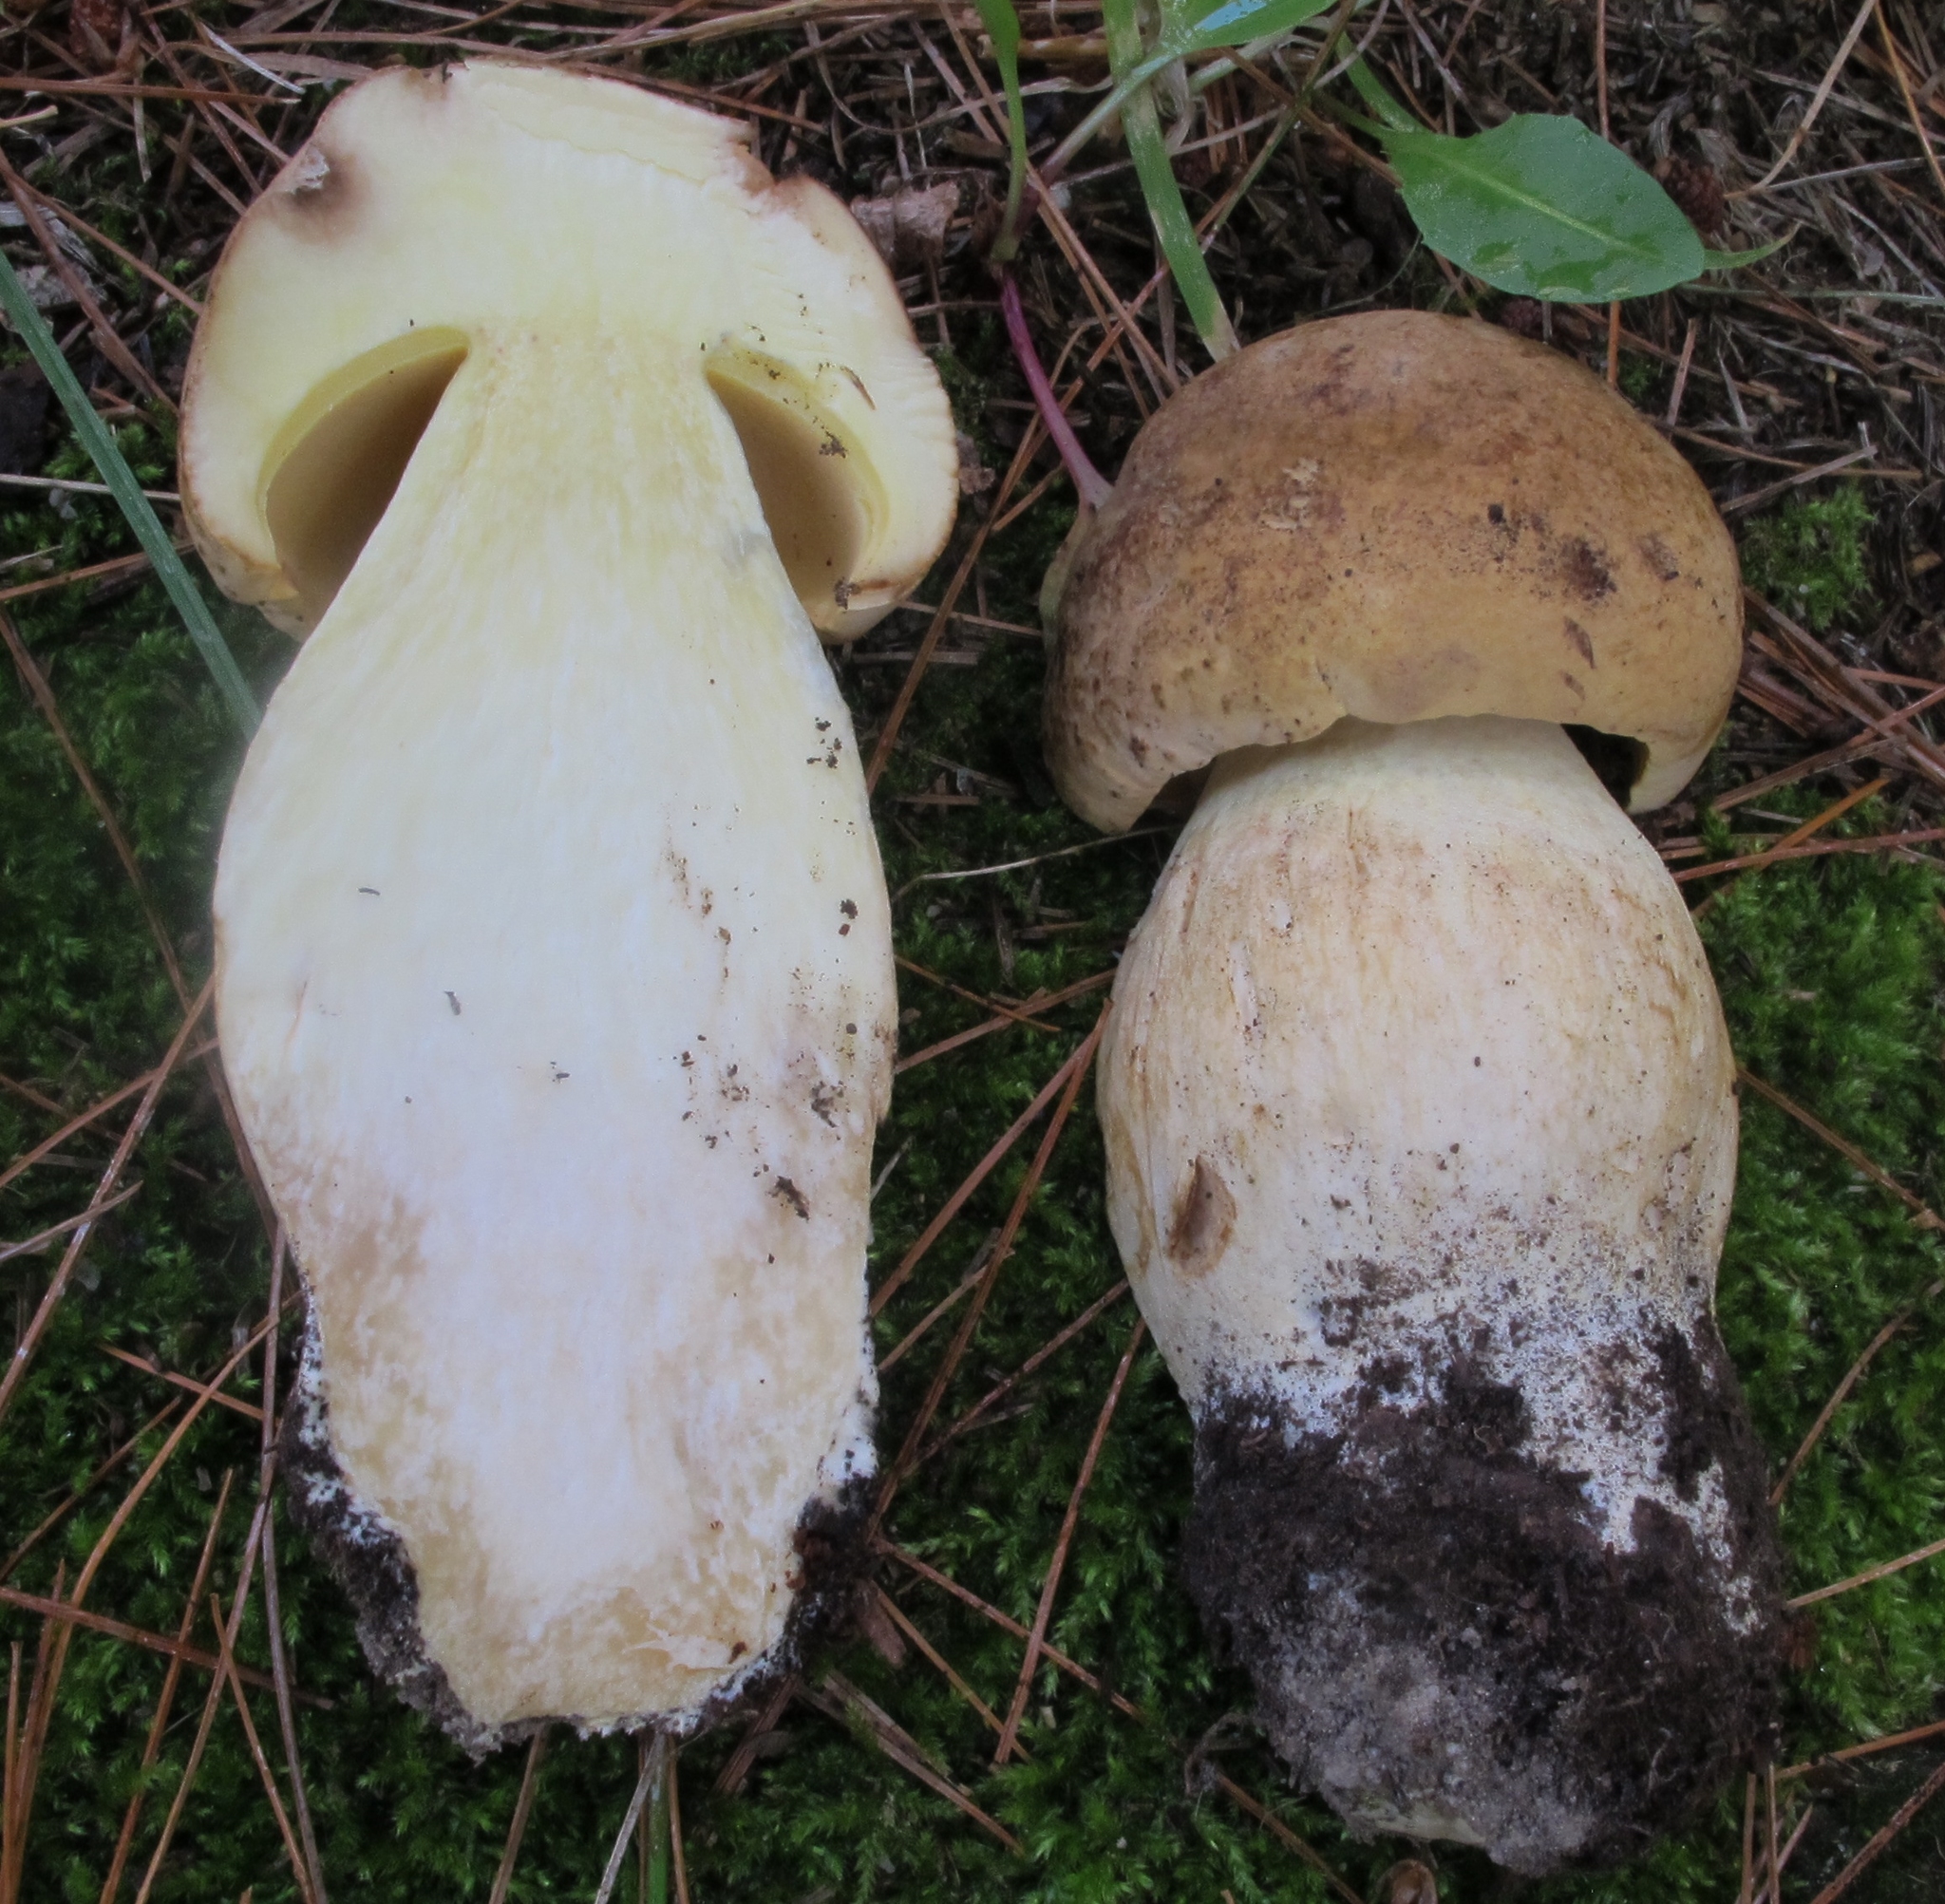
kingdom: Fungi
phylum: Basidiomycota
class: Agaricomycetes
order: Boletales
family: Boletaceae
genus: Boletus
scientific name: Boletus huronensis
